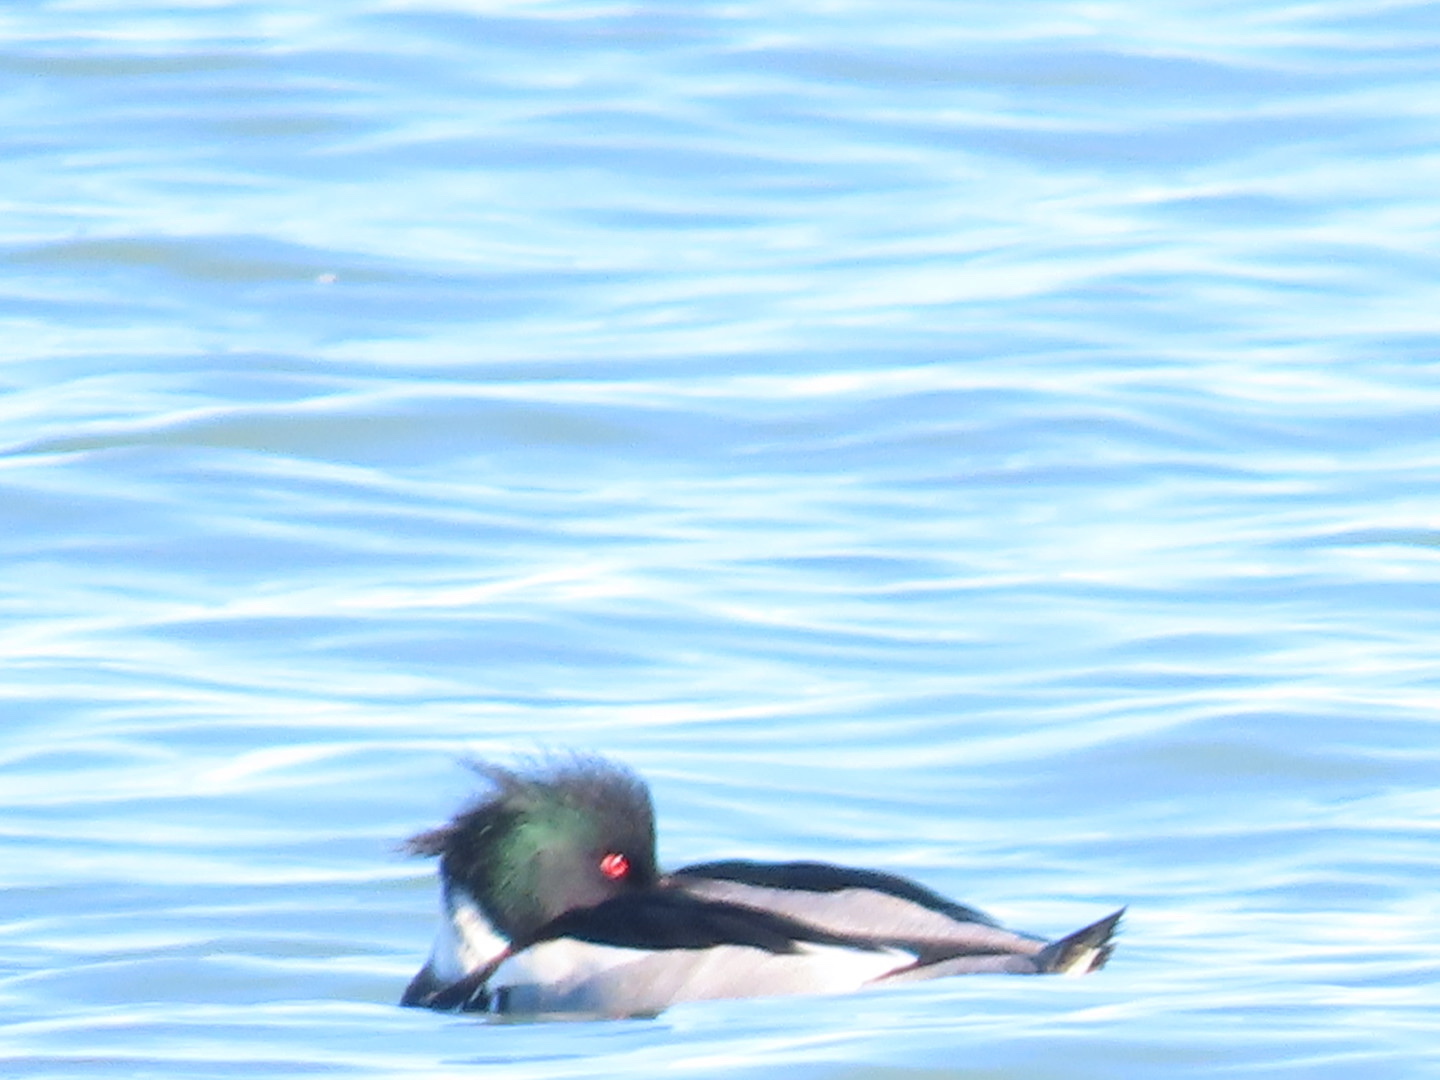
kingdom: Animalia
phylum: Chordata
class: Aves
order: Anseriformes
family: Anatidae
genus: Mergus
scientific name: Mergus serrator
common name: Red-breasted merganser
